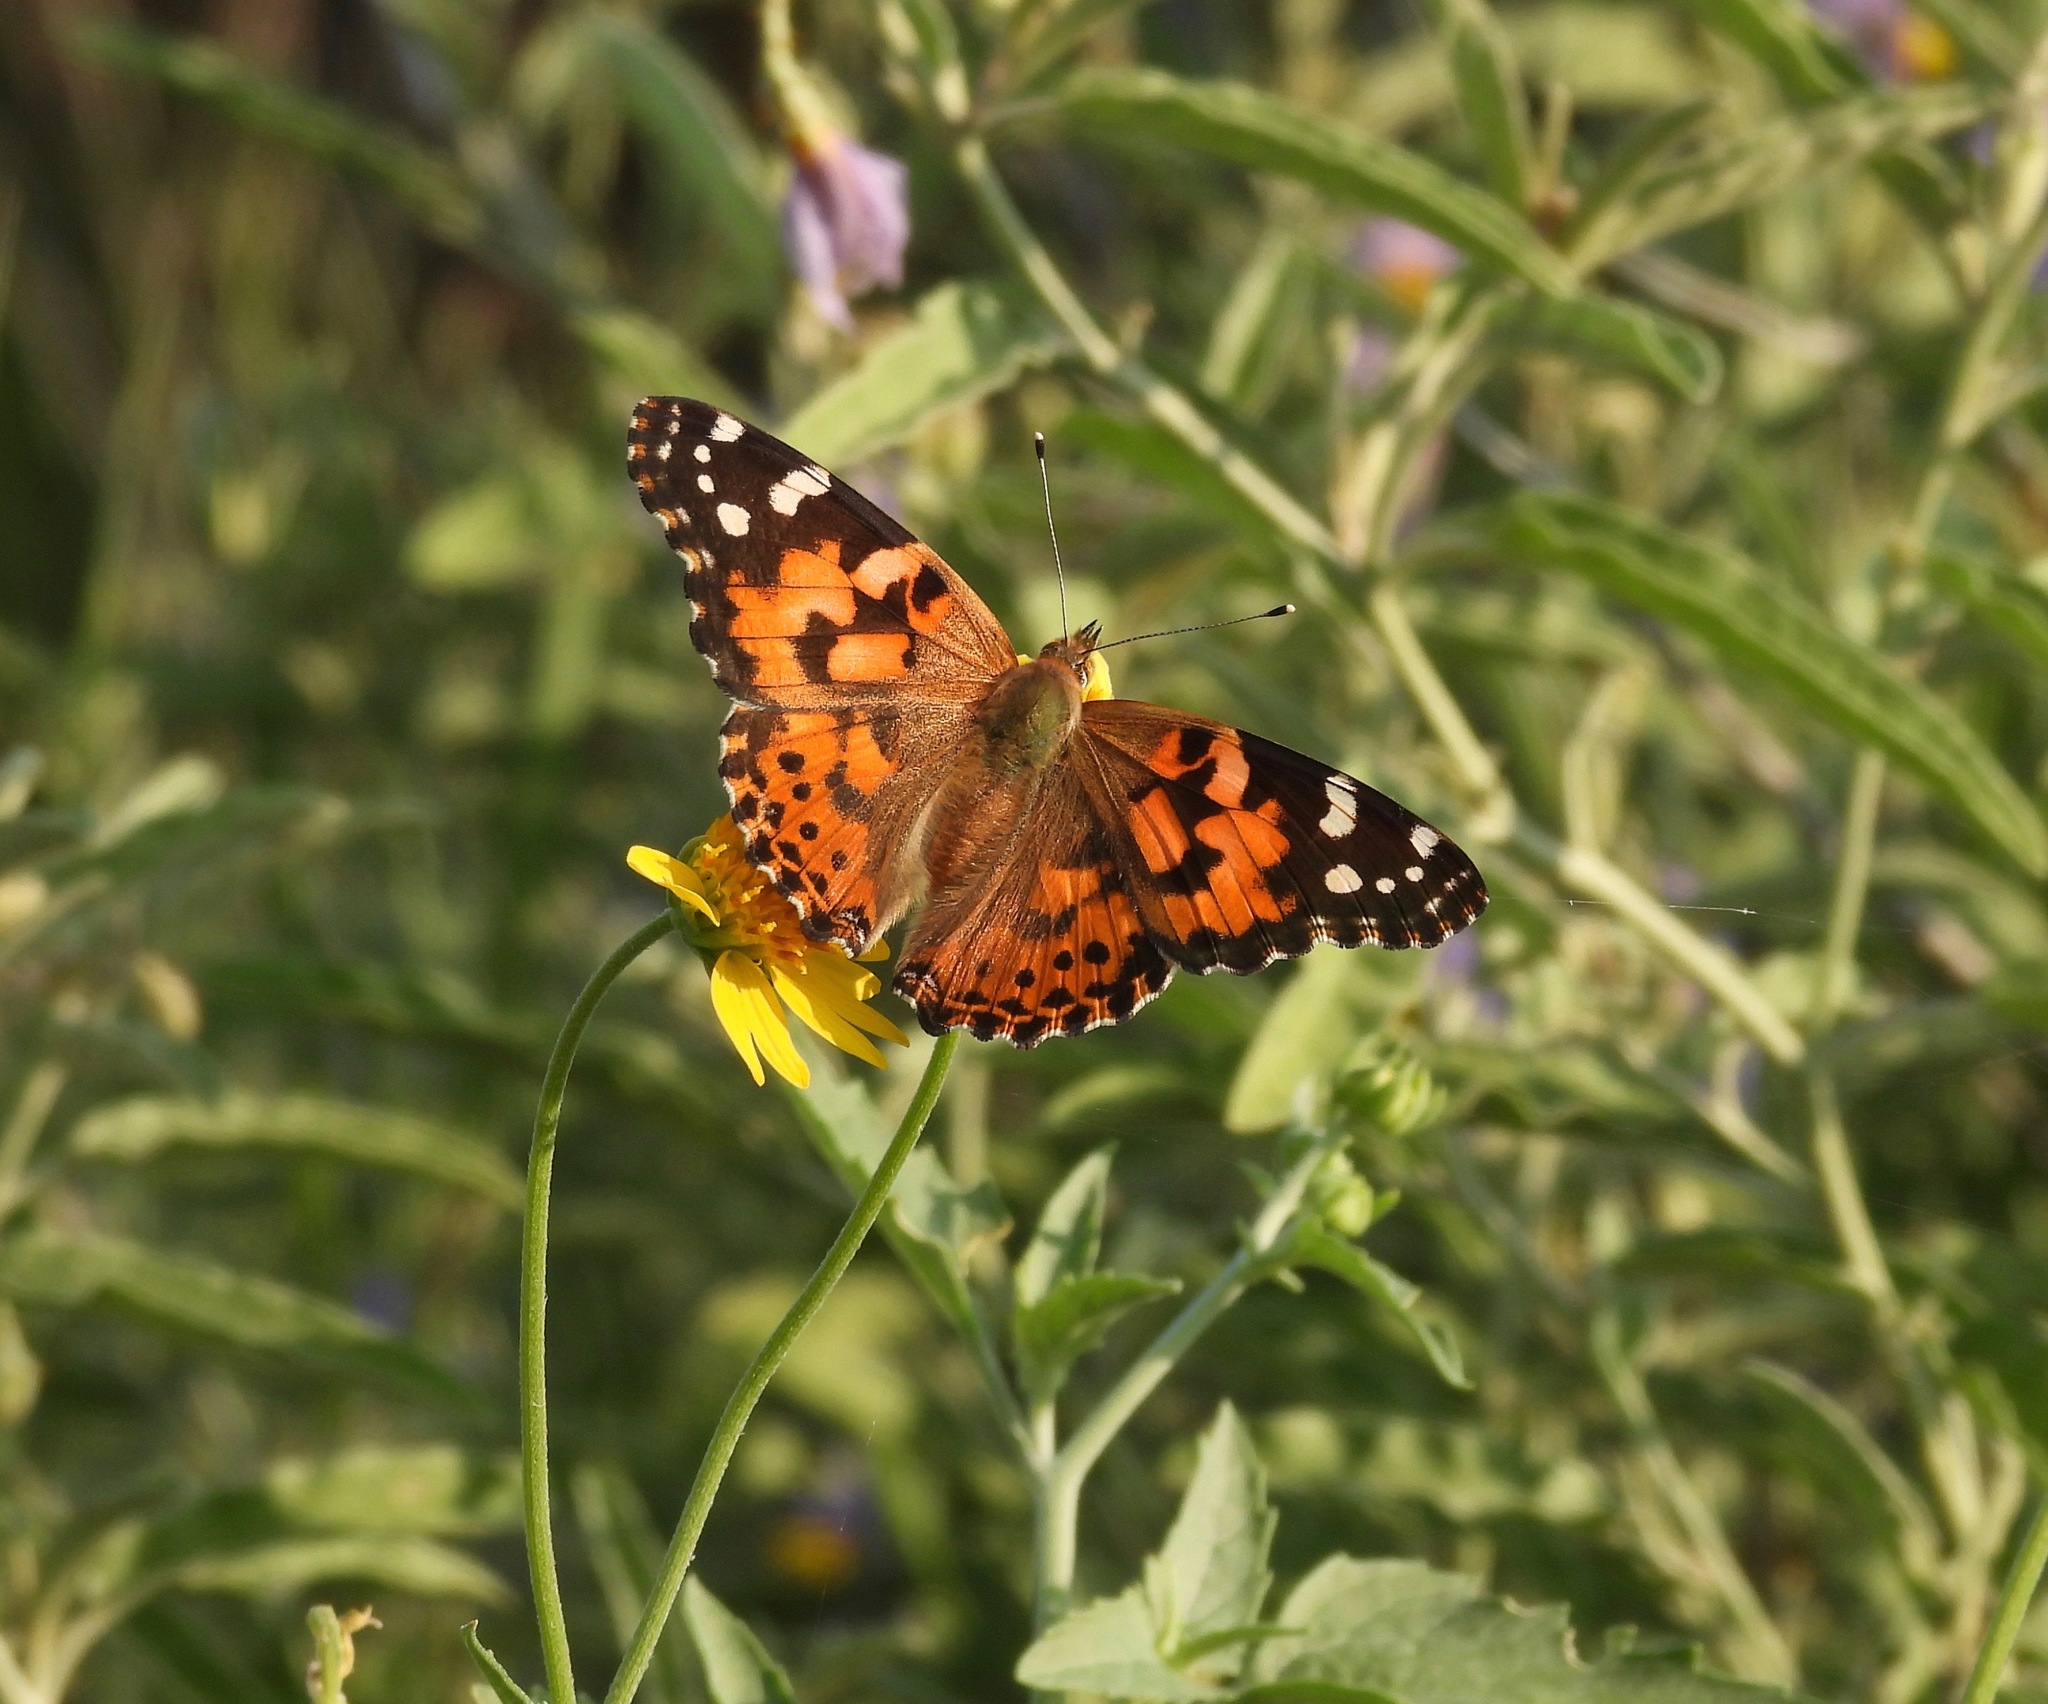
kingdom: Animalia
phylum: Arthropoda
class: Insecta
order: Lepidoptera
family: Nymphalidae
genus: Vanessa
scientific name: Vanessa cardui
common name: Painted lady
